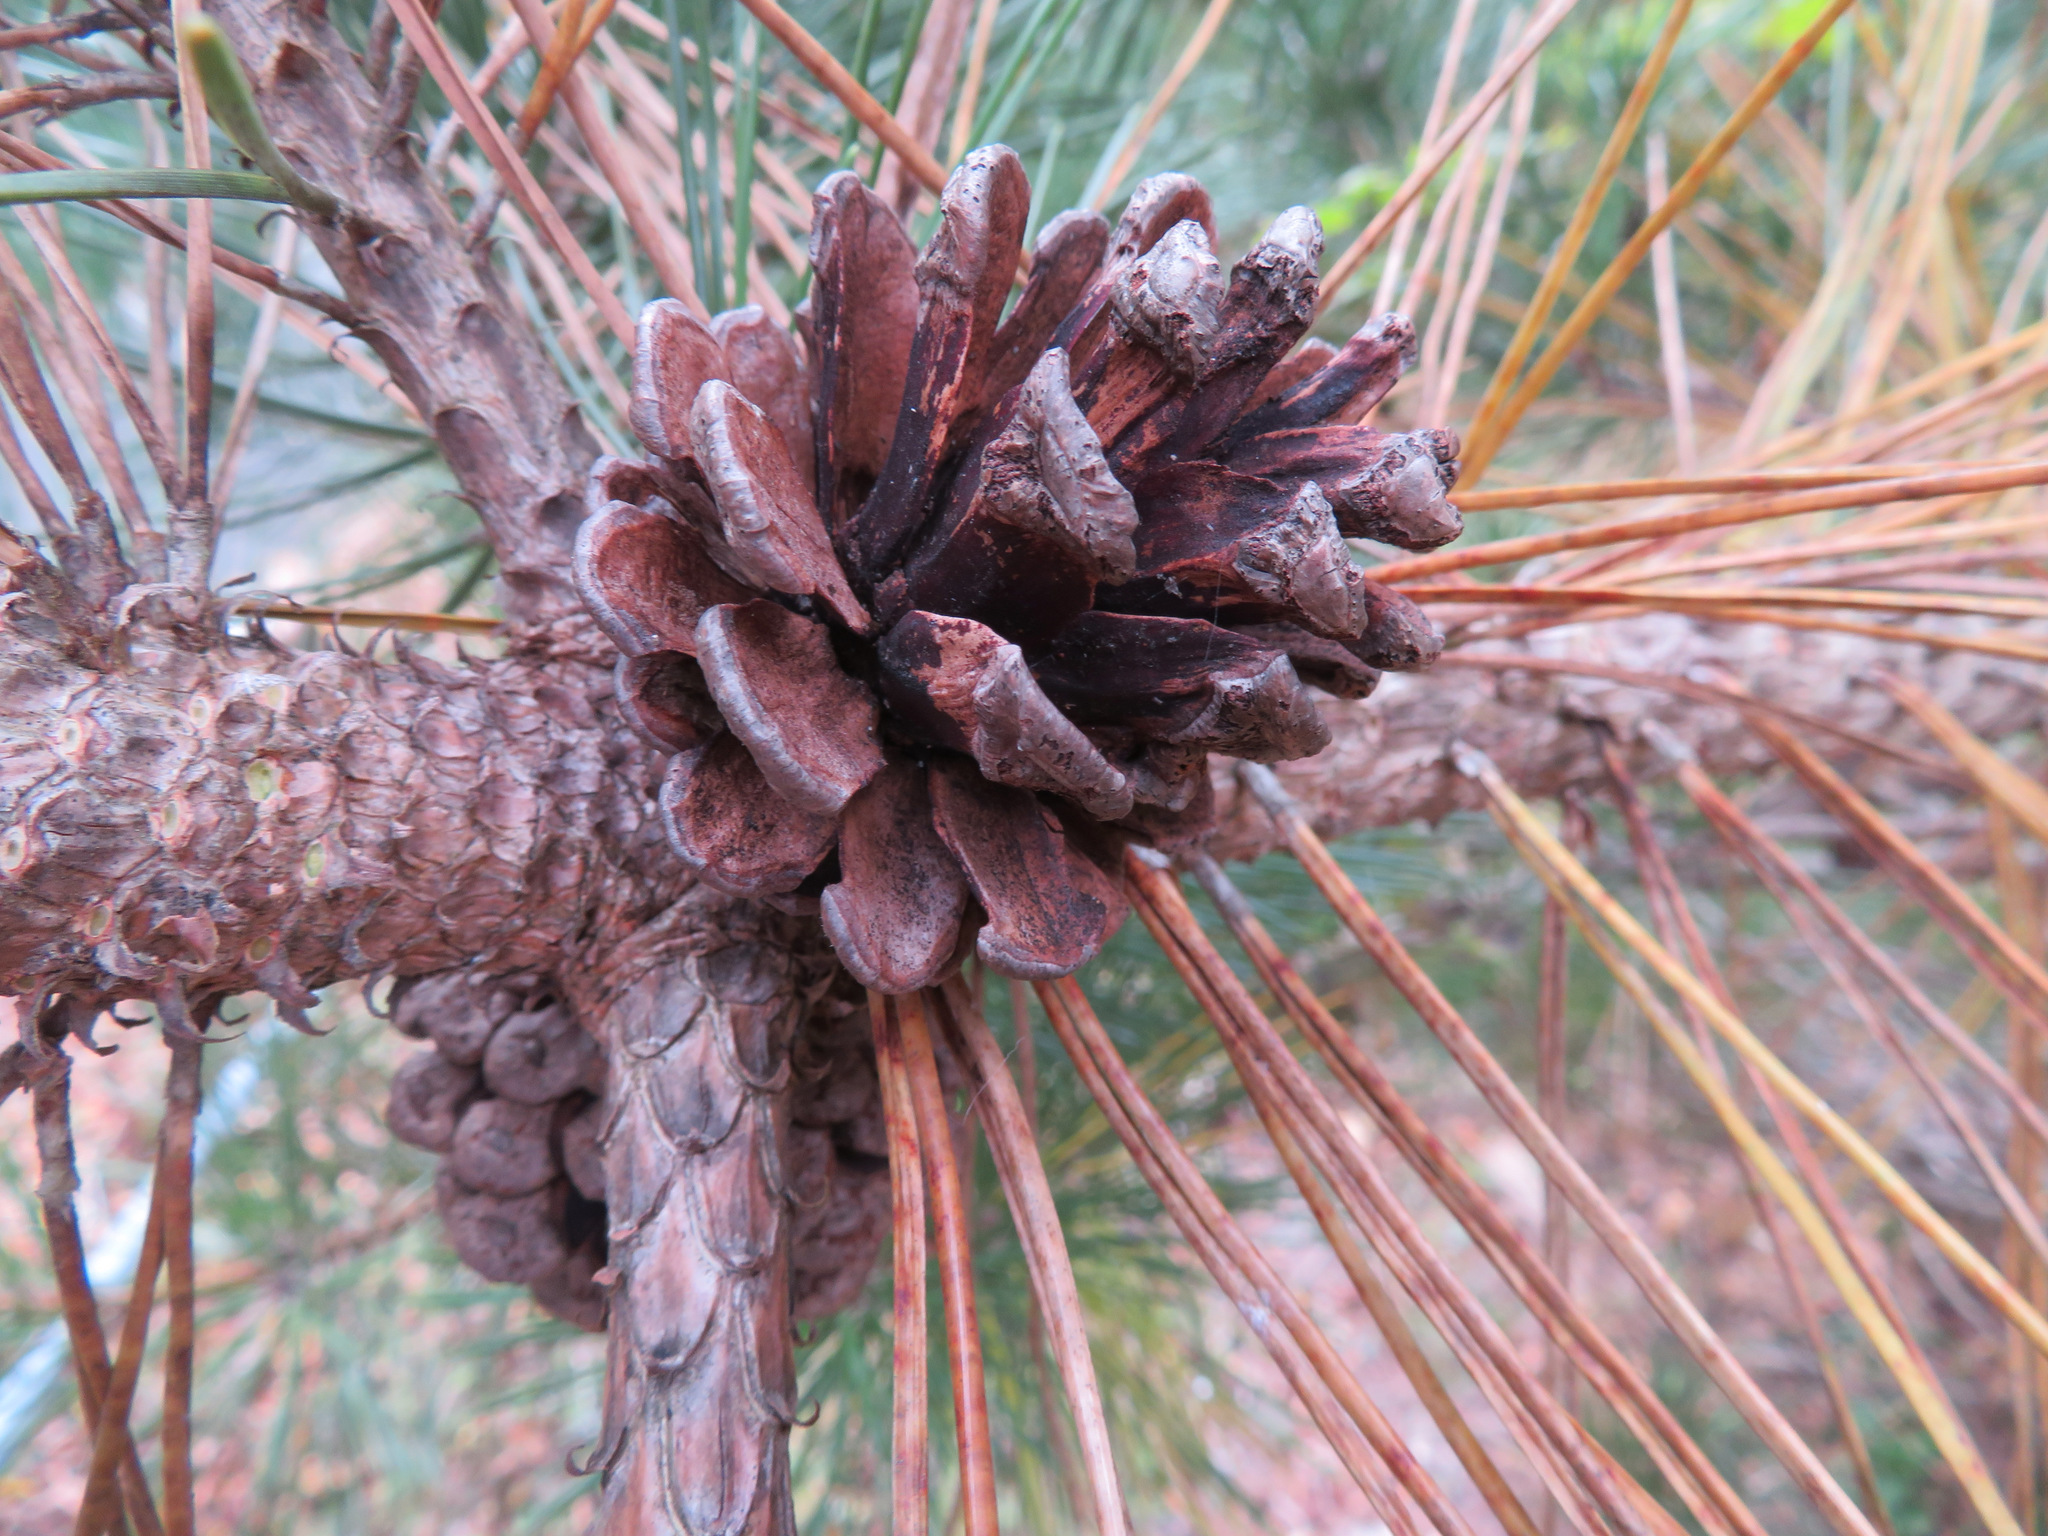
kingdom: Plantae
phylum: Tracheophyta
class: Pinopsida
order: Pinales
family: Pinaceae
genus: Pinus
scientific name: Pinus densiflora
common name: Japanese red pine
